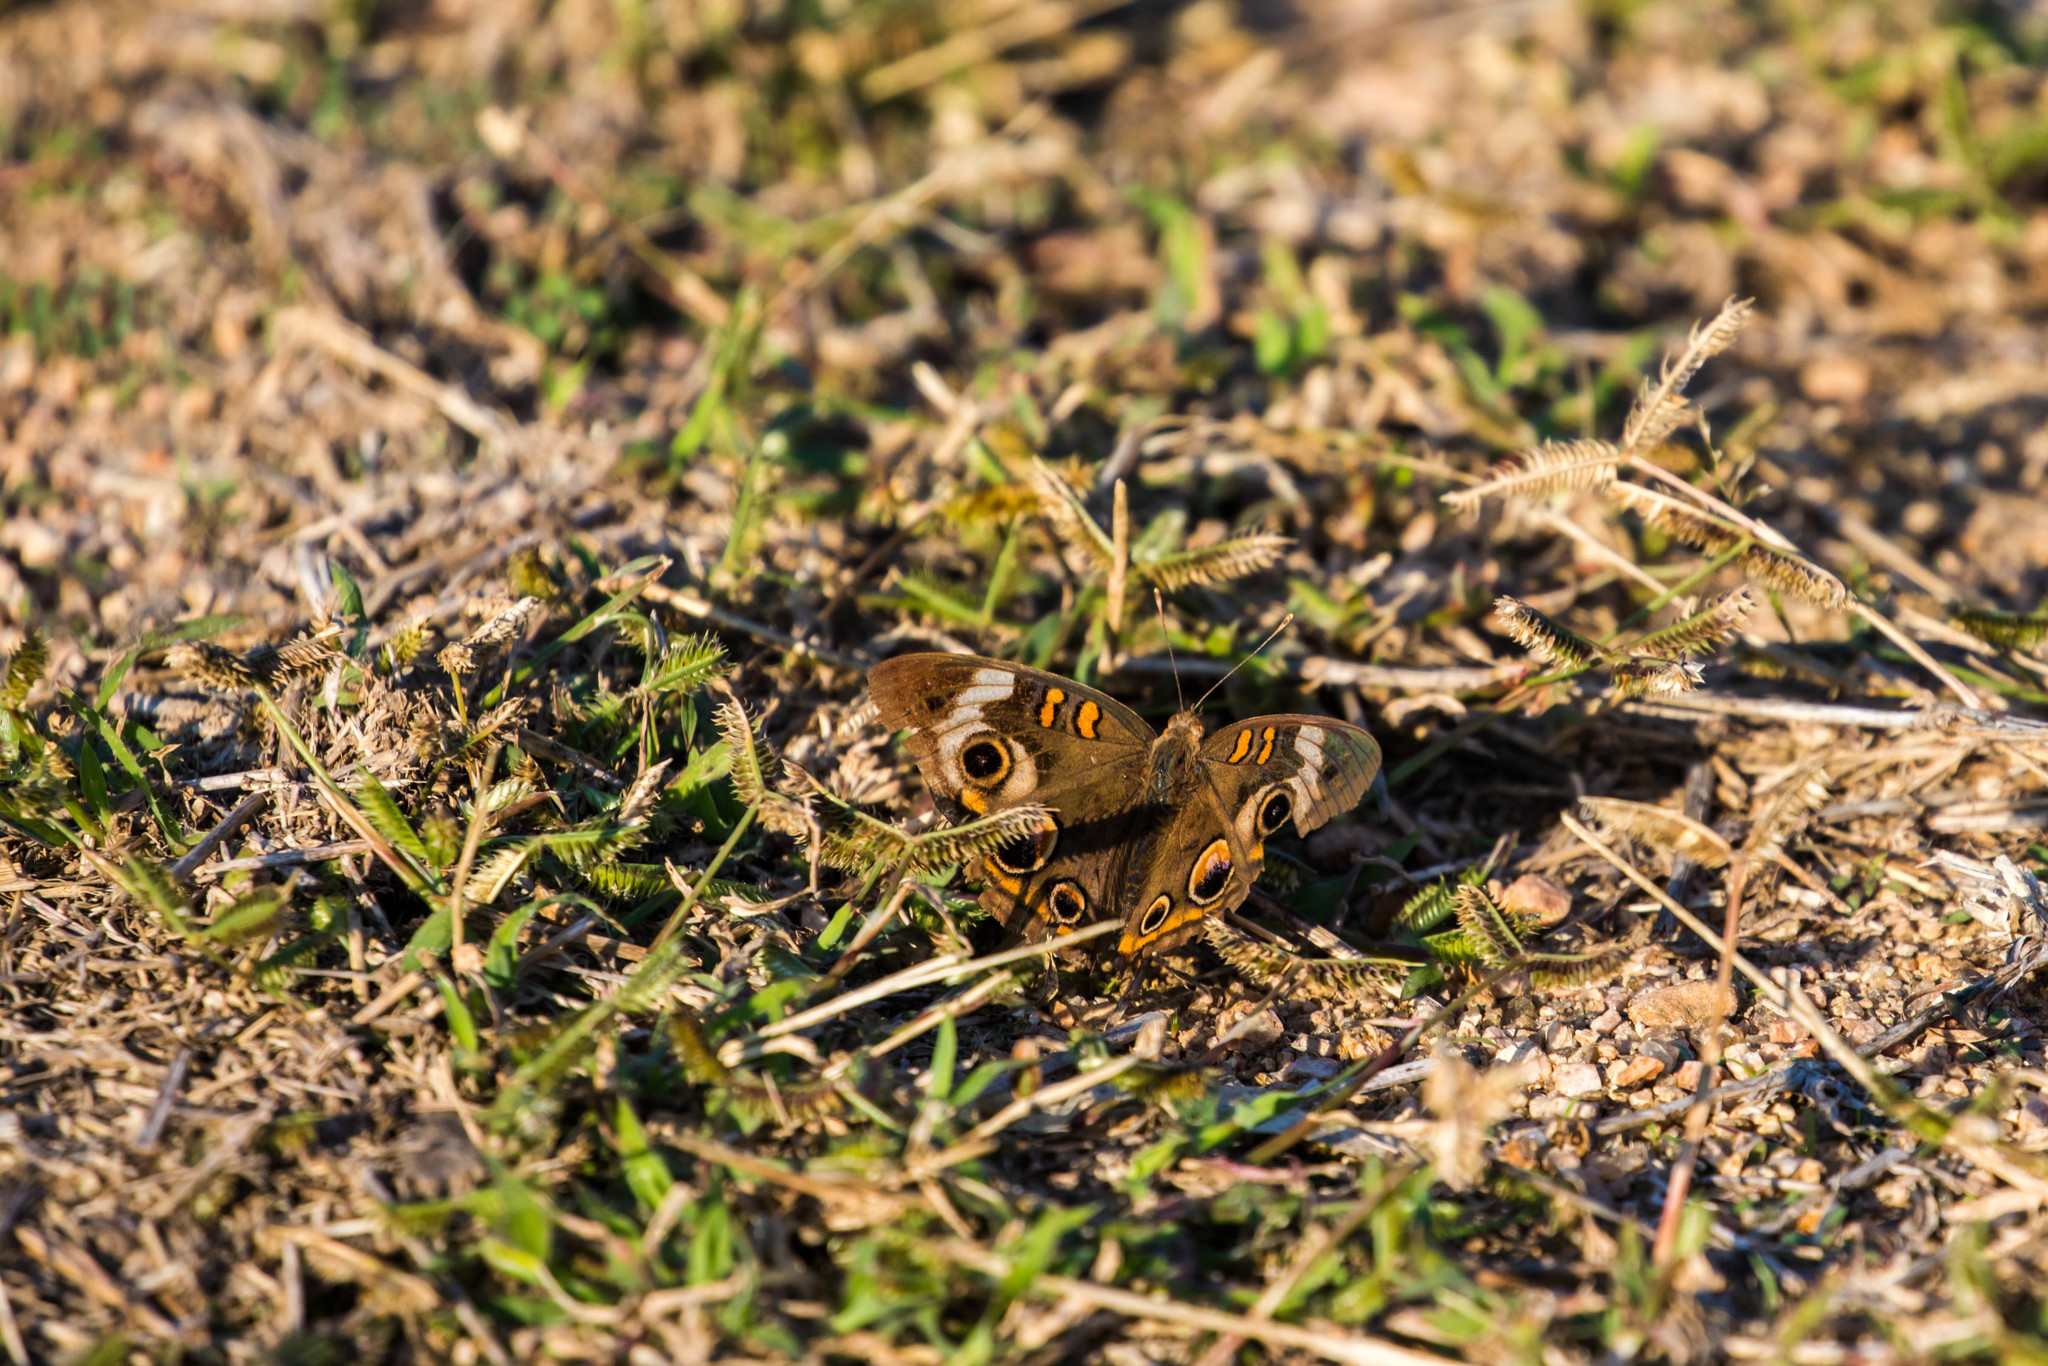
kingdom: Animalia
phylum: Arthropoda
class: Insecta
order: Lepidoptera
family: Nymphalidae
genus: Junonia
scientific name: Junonia coenia
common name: Common buckeye
